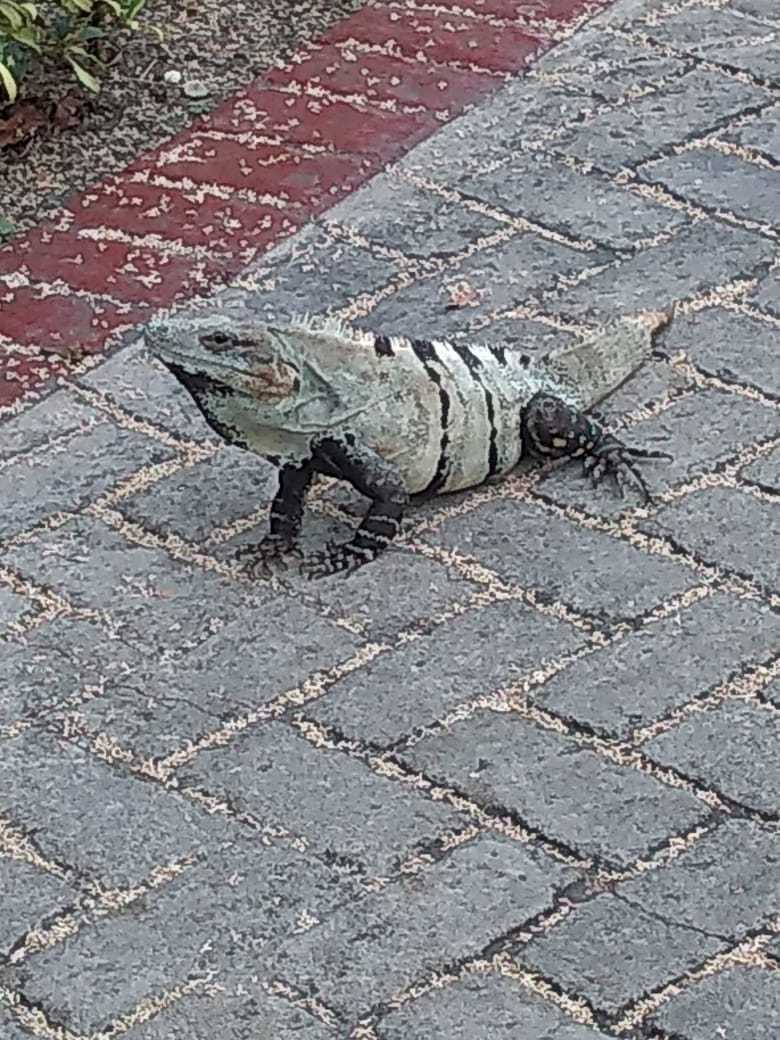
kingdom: Animalia
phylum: Chordata
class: Squamata
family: Iguanidae
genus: Ctenosaura
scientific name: Ctenosaura similis
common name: Black spiny-tailed iguana
